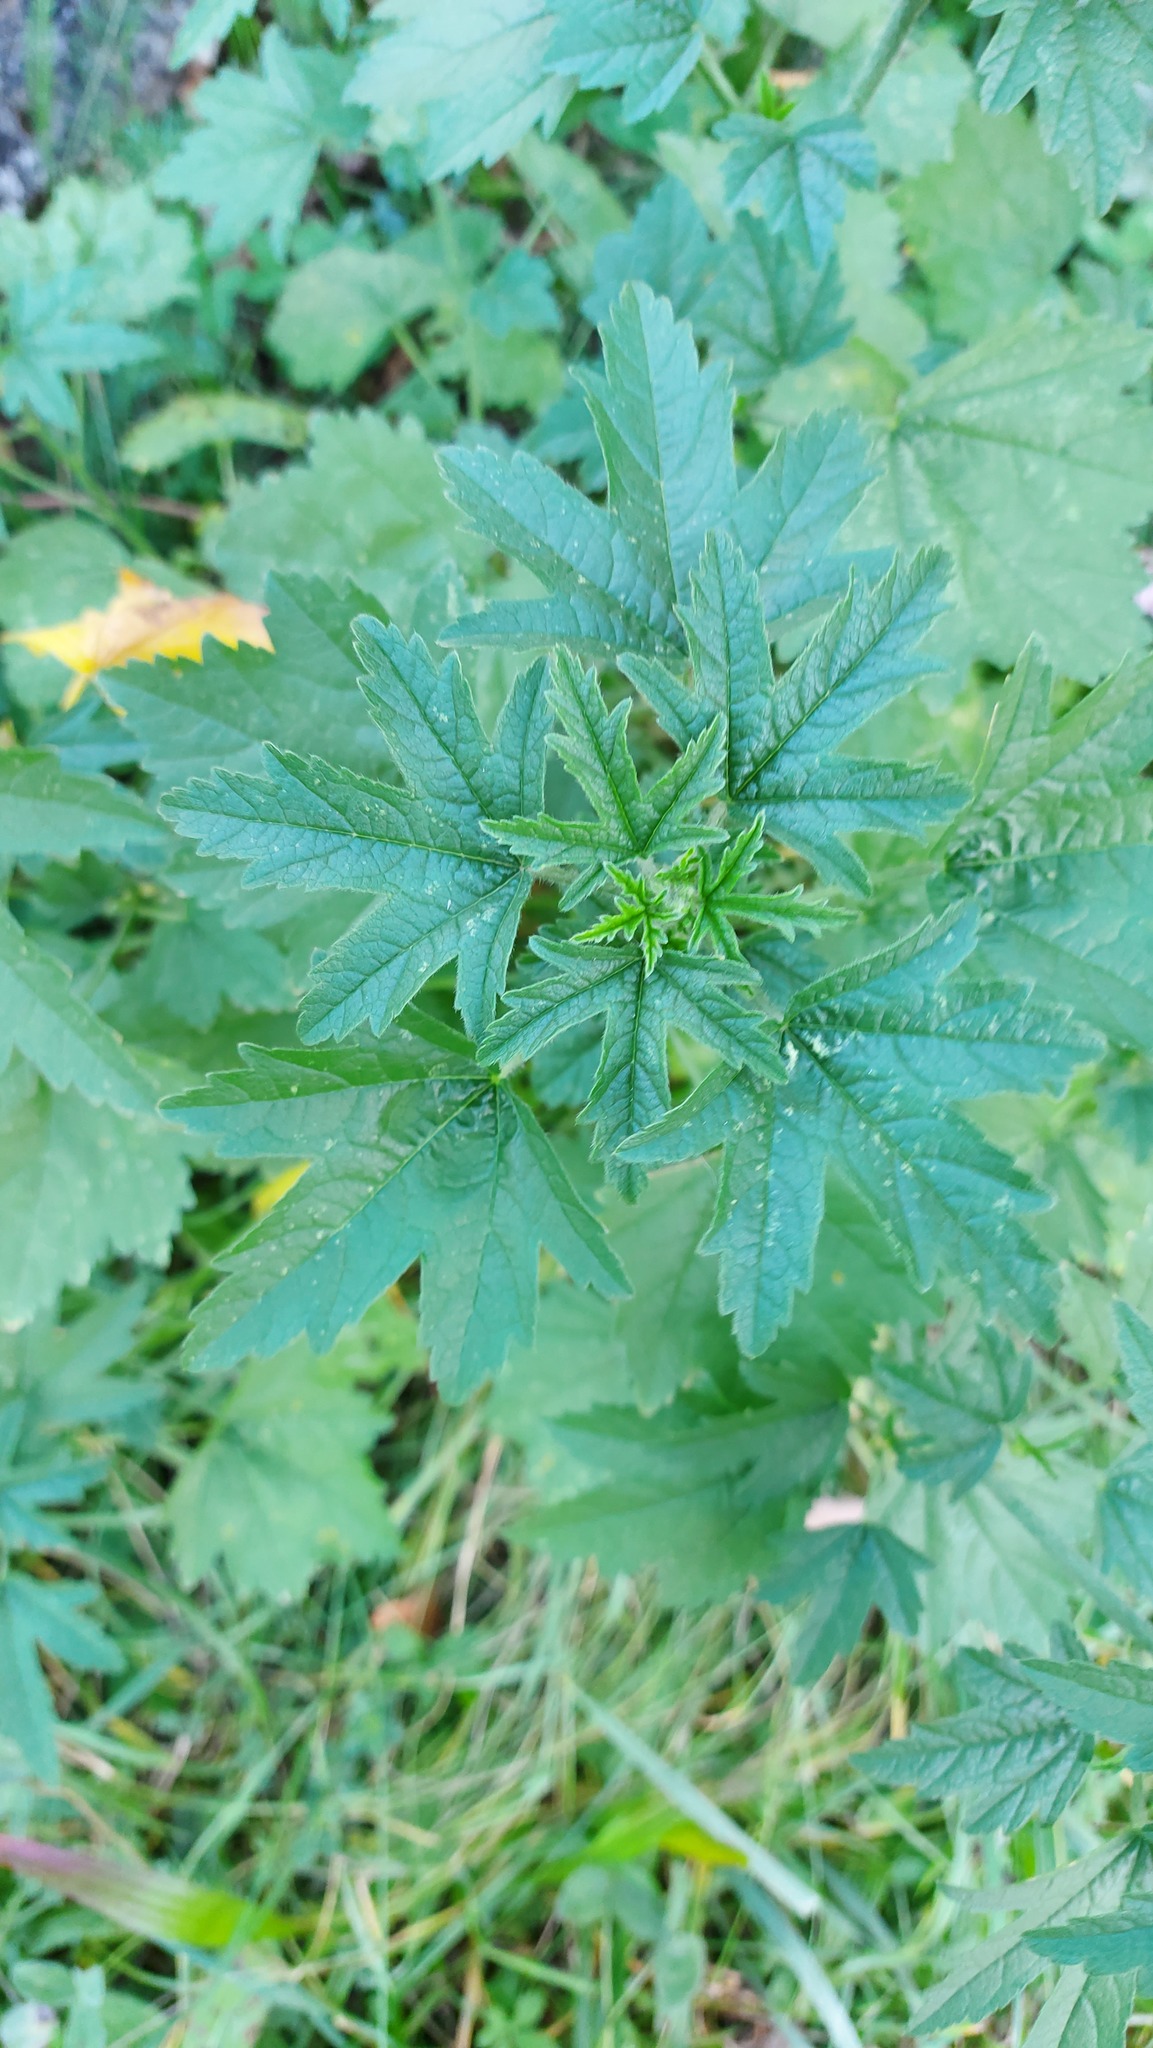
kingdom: Plantae
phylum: Tracheophyta
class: Magnoliopsida
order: Malvales
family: Malvaceae
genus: Malva
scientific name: Malva alcea
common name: Greater musk-mallow
